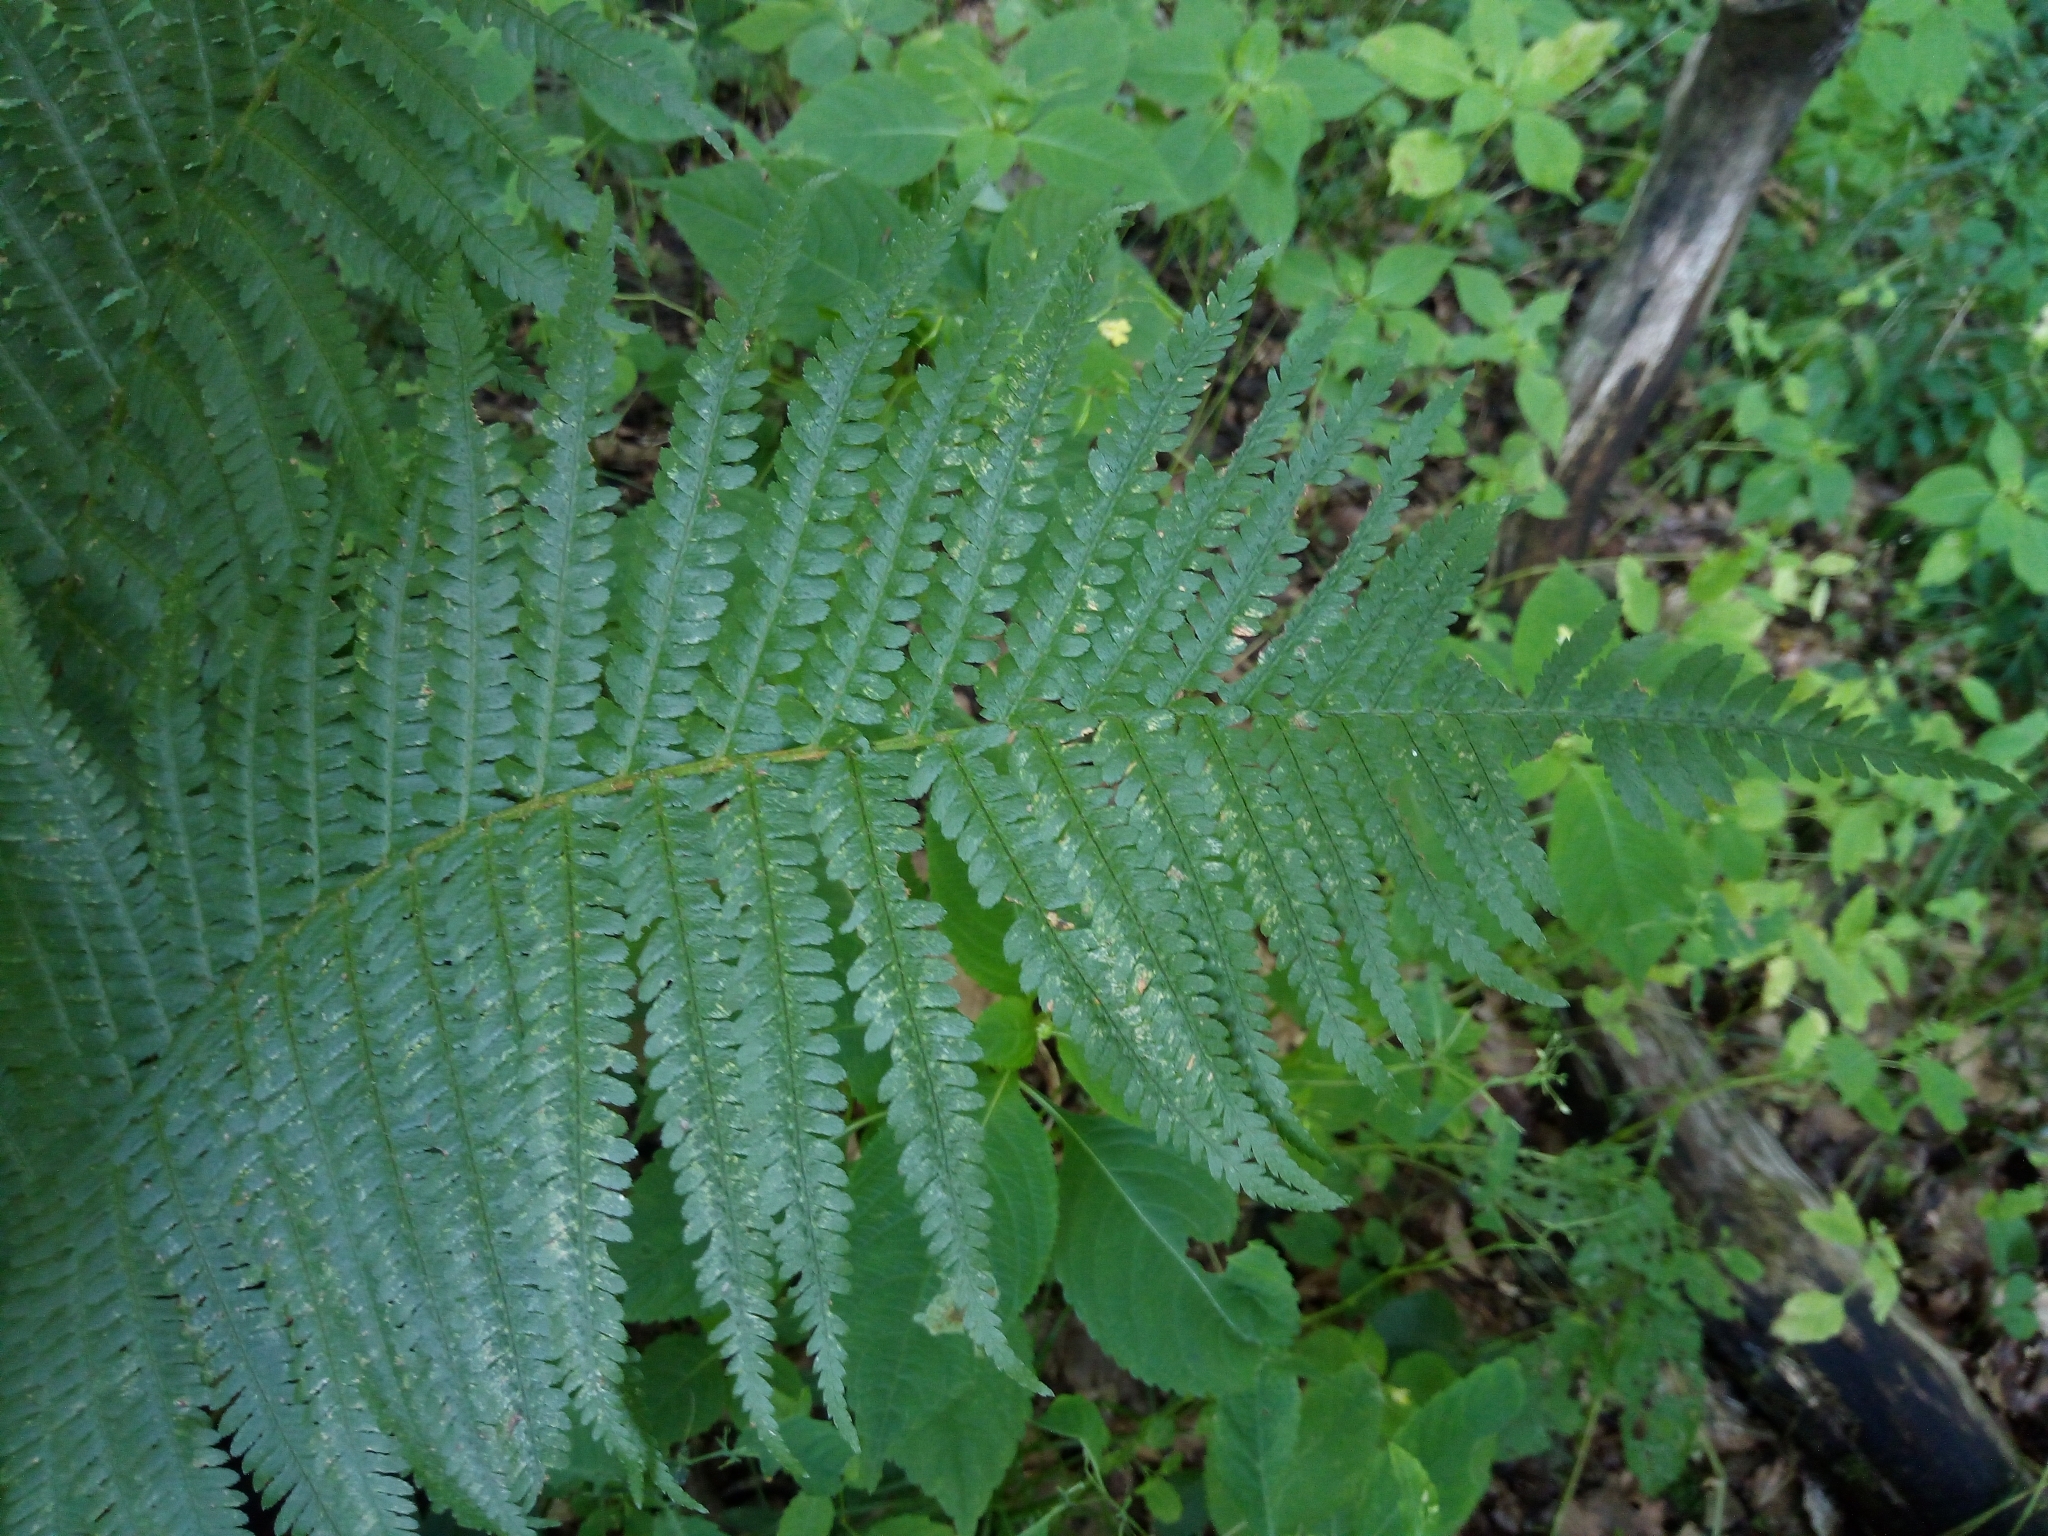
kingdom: Plantae
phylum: Tracheophyta
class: Polypodiopsida
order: Polypodiales
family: Dryopteridaceae
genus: Dryopteris
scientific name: Dryopteris filix-mas
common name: Male fern
